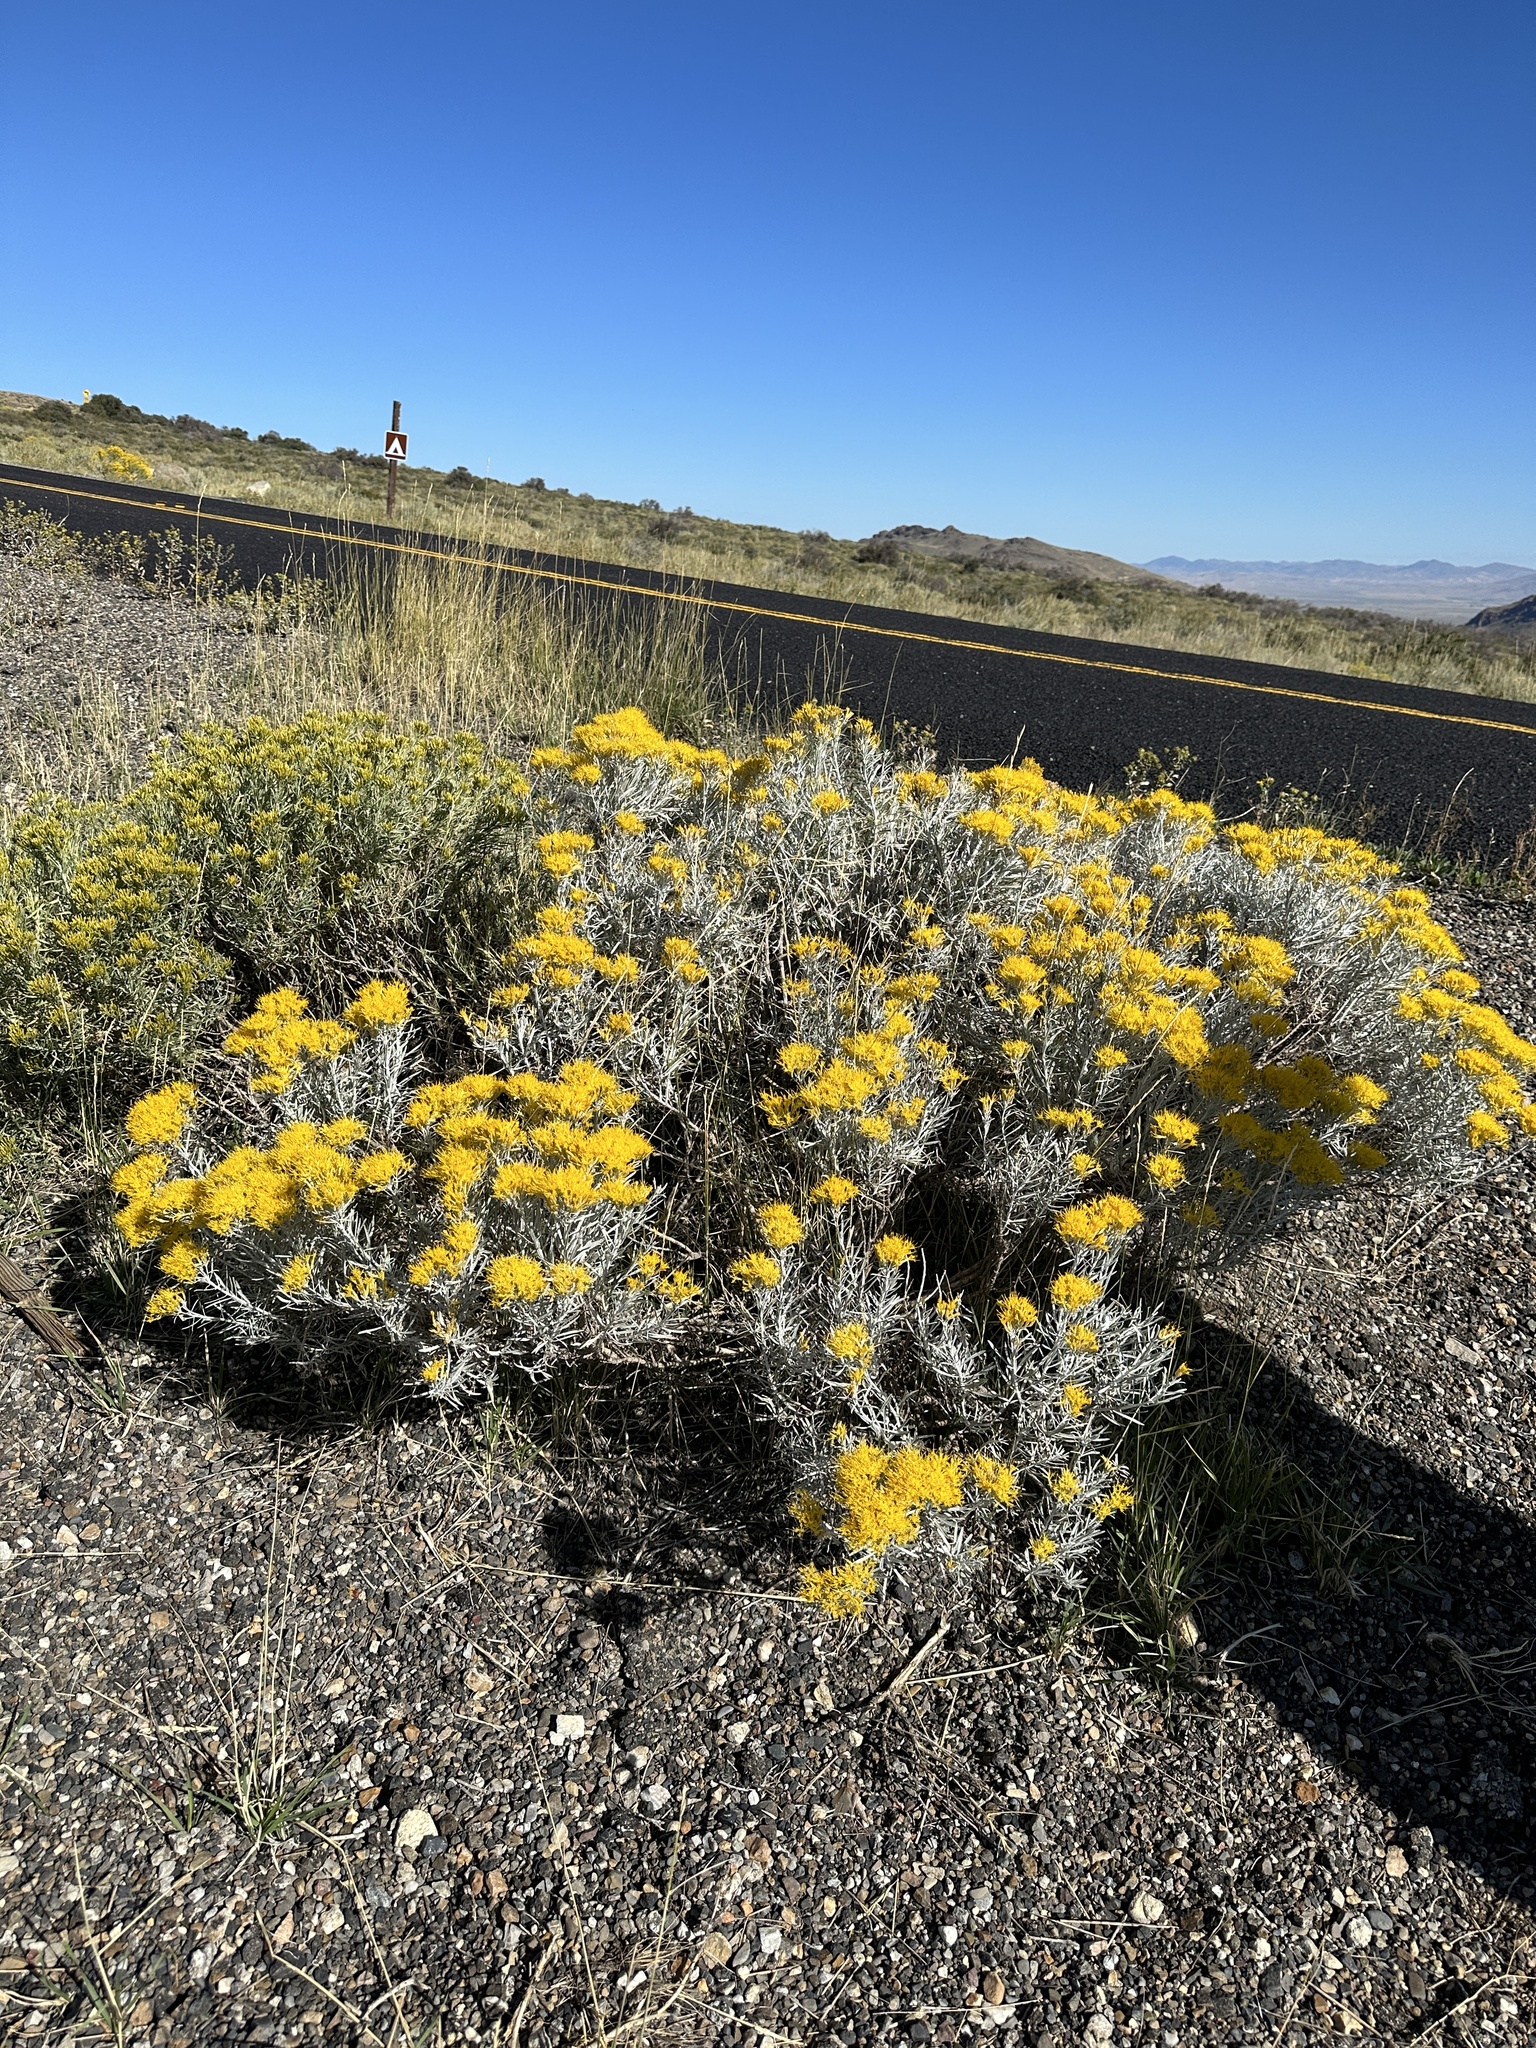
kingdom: Plantae
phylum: Tracheophyta
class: Magnoliopsida
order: Asterales
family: Asteraceae
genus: Ericameria
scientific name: Ericameria nauseosa
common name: Rubber rabbitbrush
